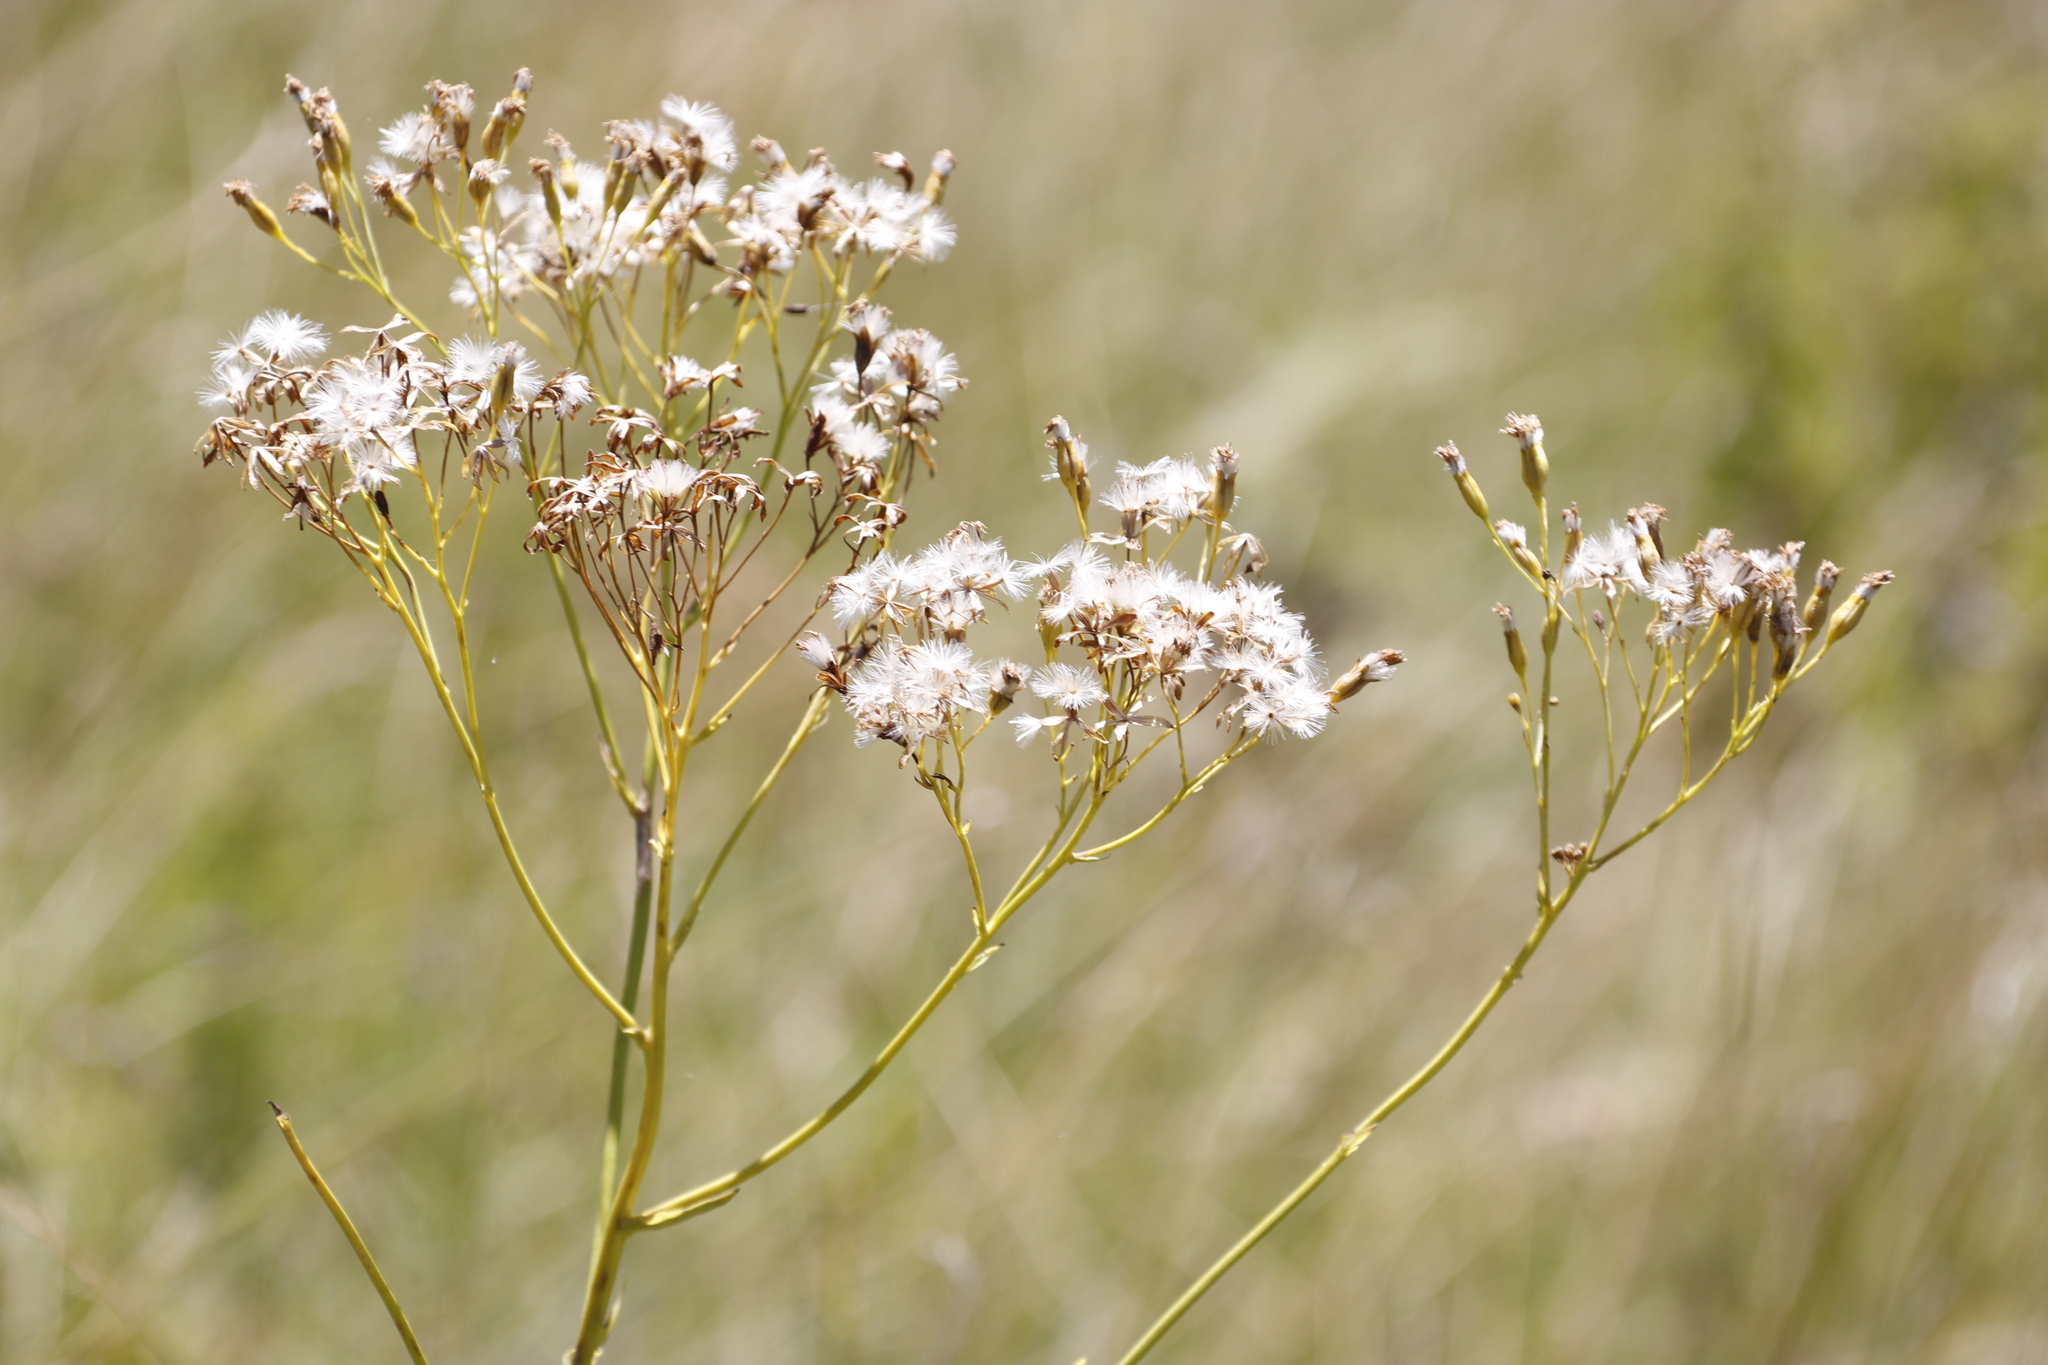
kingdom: Plantae
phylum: Tracheophyta
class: Magnoliopsida
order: Asterales
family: Asteraceae
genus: Senecio
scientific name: Senecio isatideus
